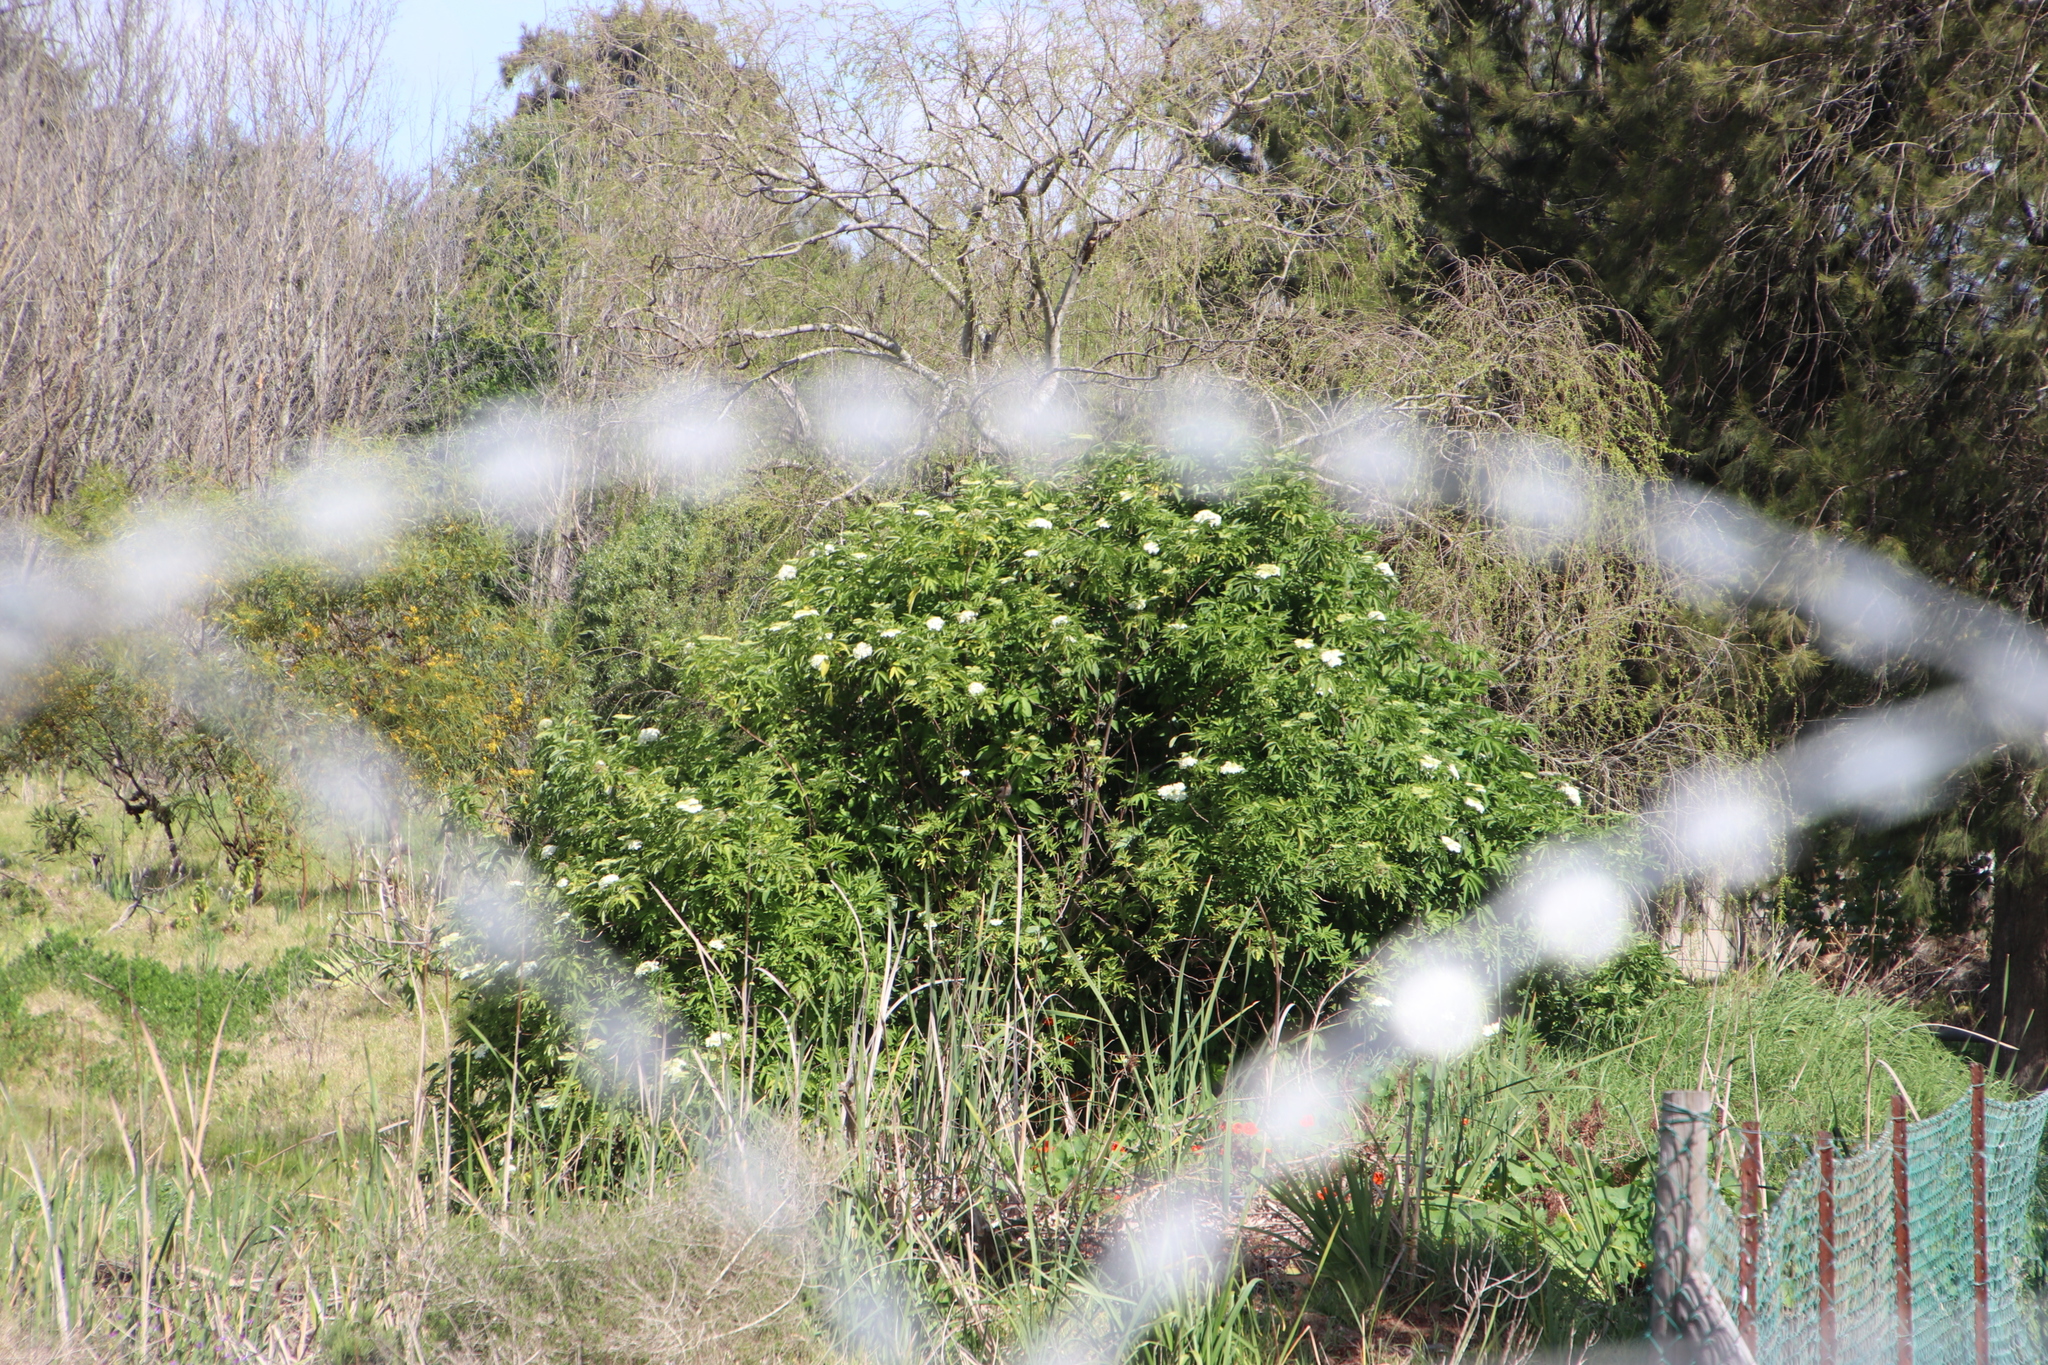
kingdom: Plantae
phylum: Tracheophyta
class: Magnoliopsida
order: Dipsacales
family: Viburnaceae
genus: Sambucus
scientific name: Sambucus nigra
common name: Elder
